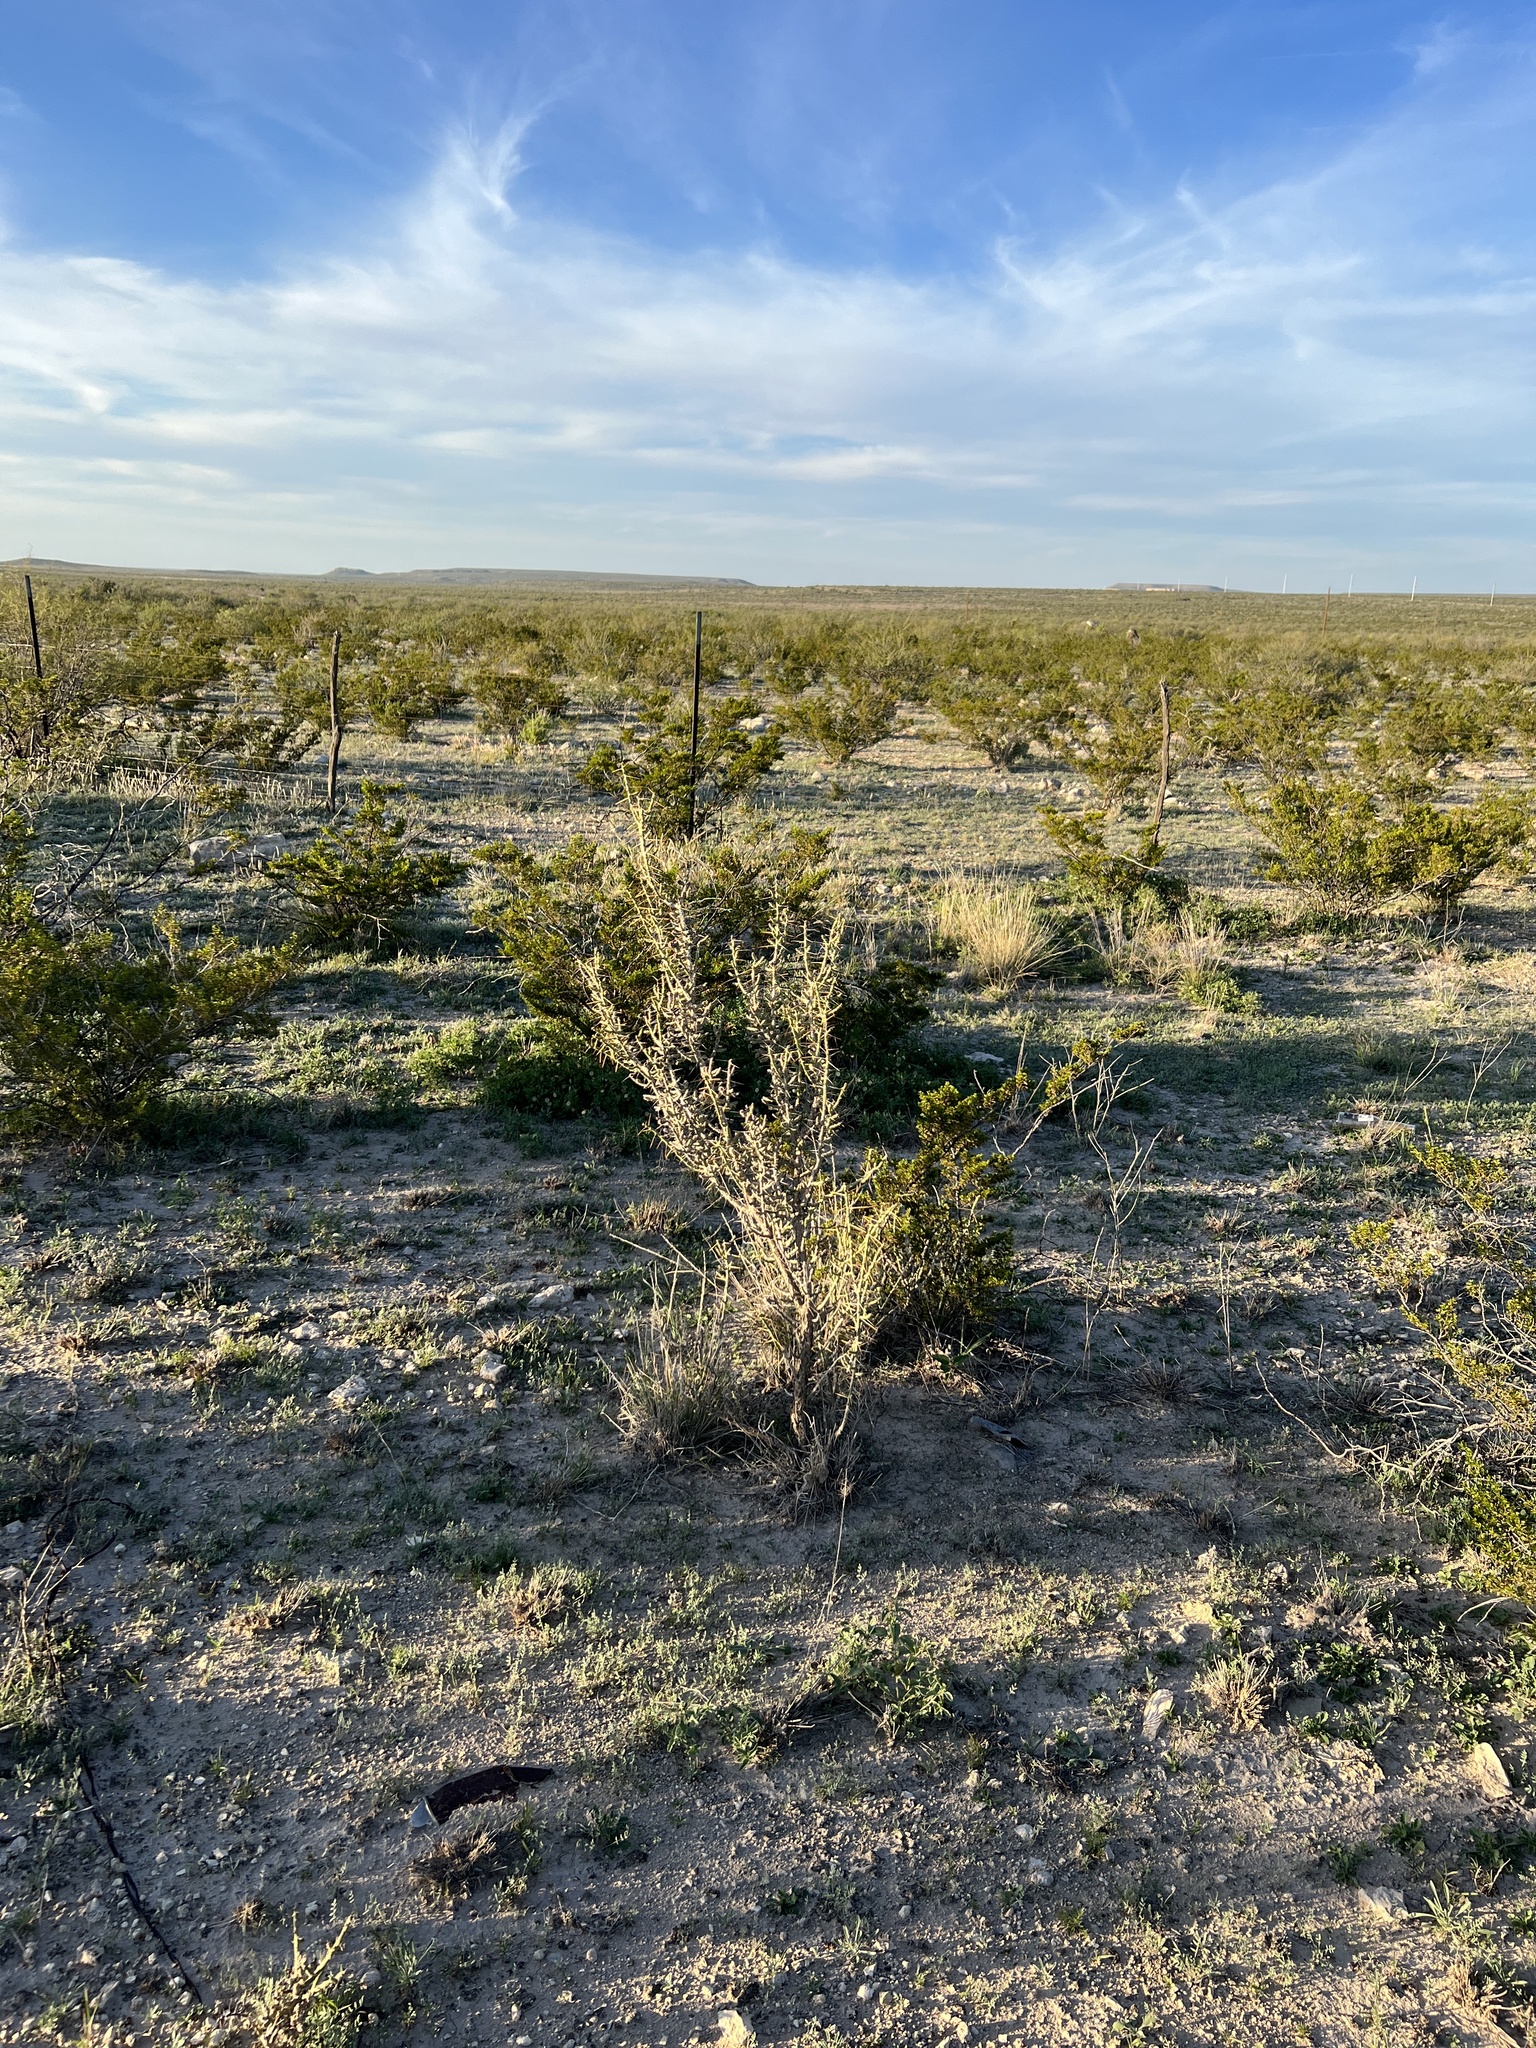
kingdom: Plantae
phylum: Tracheophyta
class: Magnoliopsida
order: Caryophyllales
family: Cactaceae
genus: Cylindropuntia
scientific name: Cylindropuntia leptocaulis
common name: Christmas cactus
